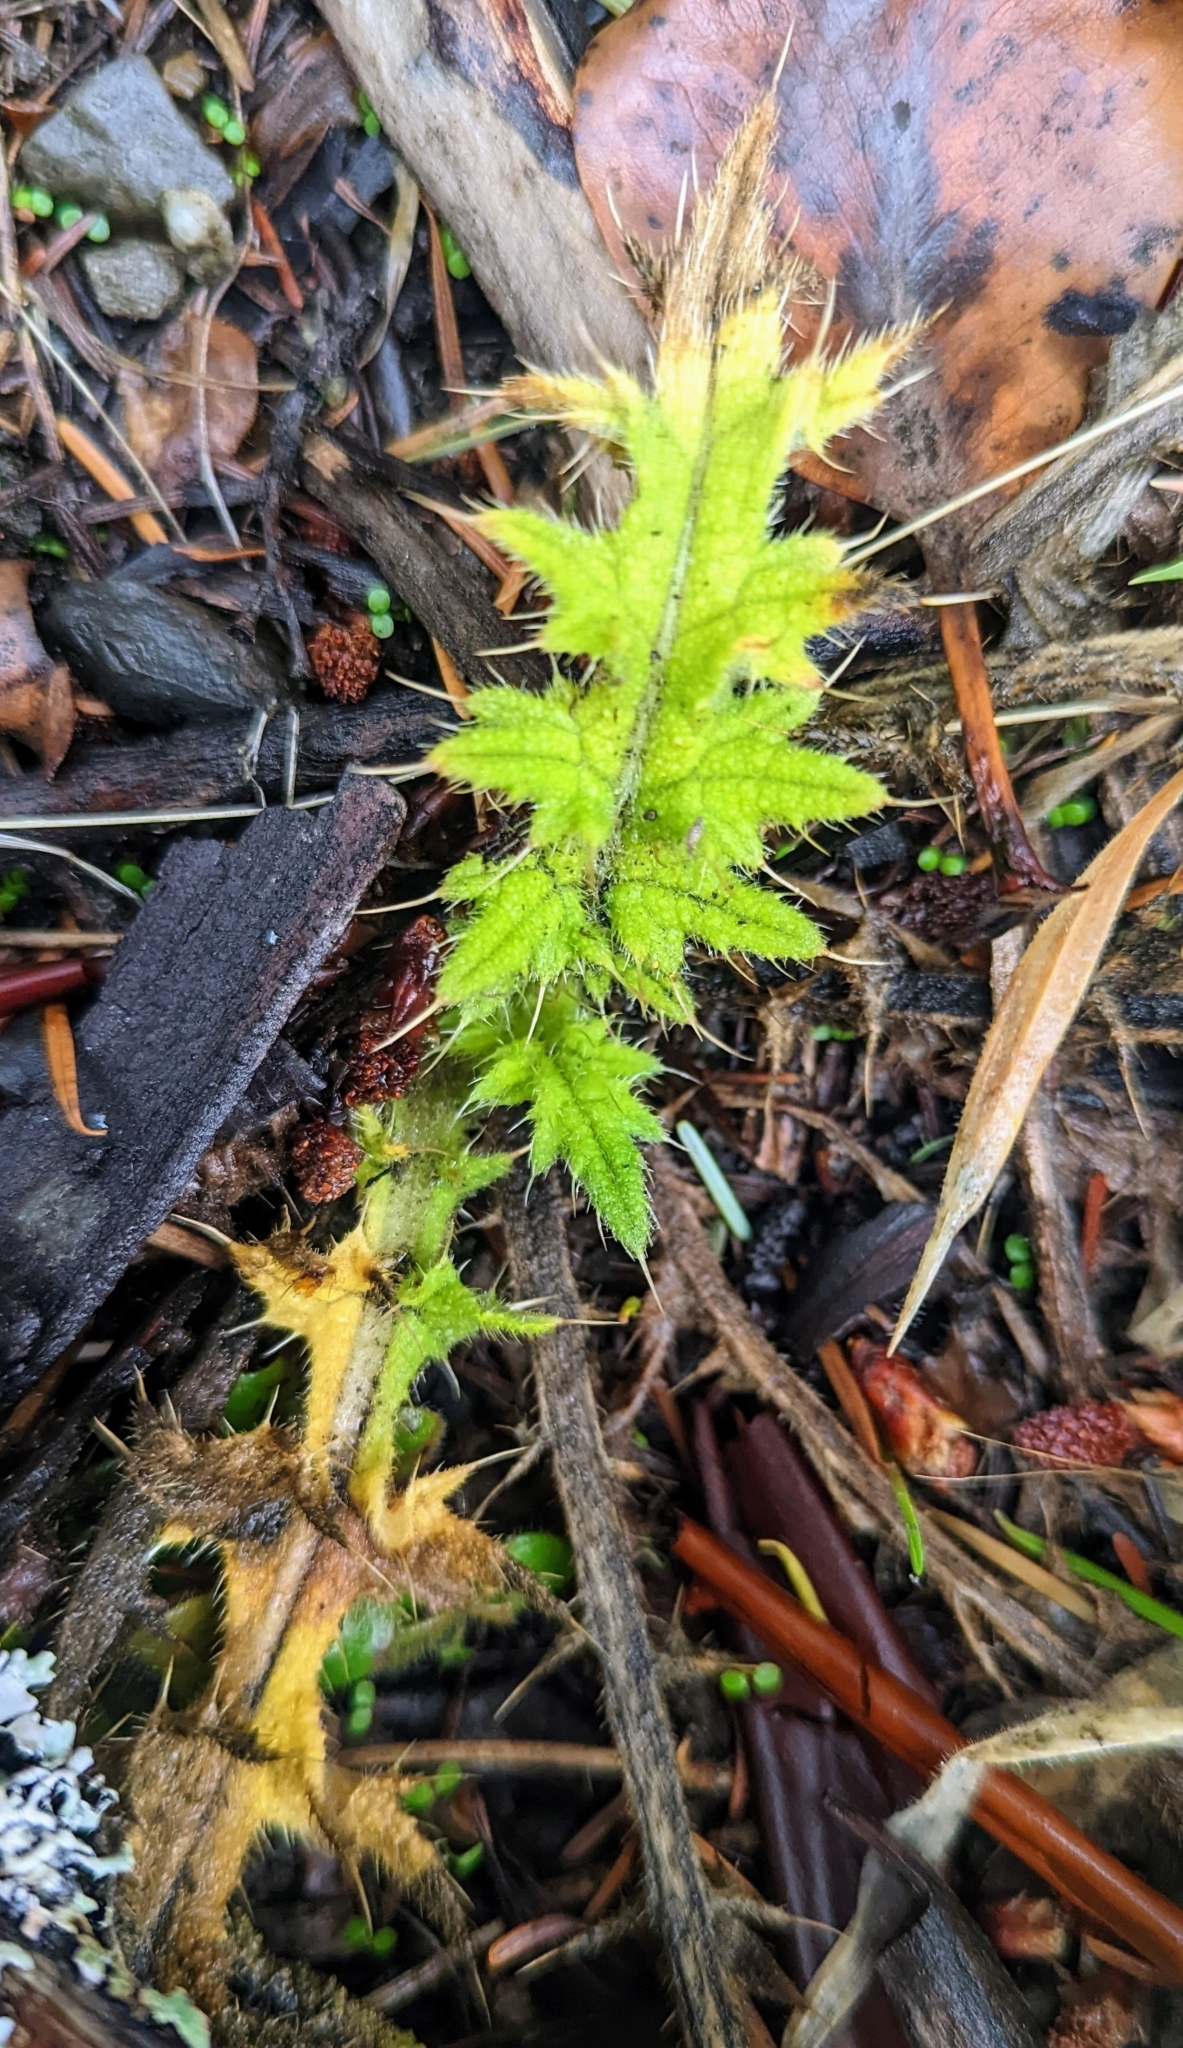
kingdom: Plantae
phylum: Tracheophyta
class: Magnoliopsida
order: Asterales
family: Asteraceae
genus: Cirsium
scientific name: Cirsium vulgare
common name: Bull thistle
